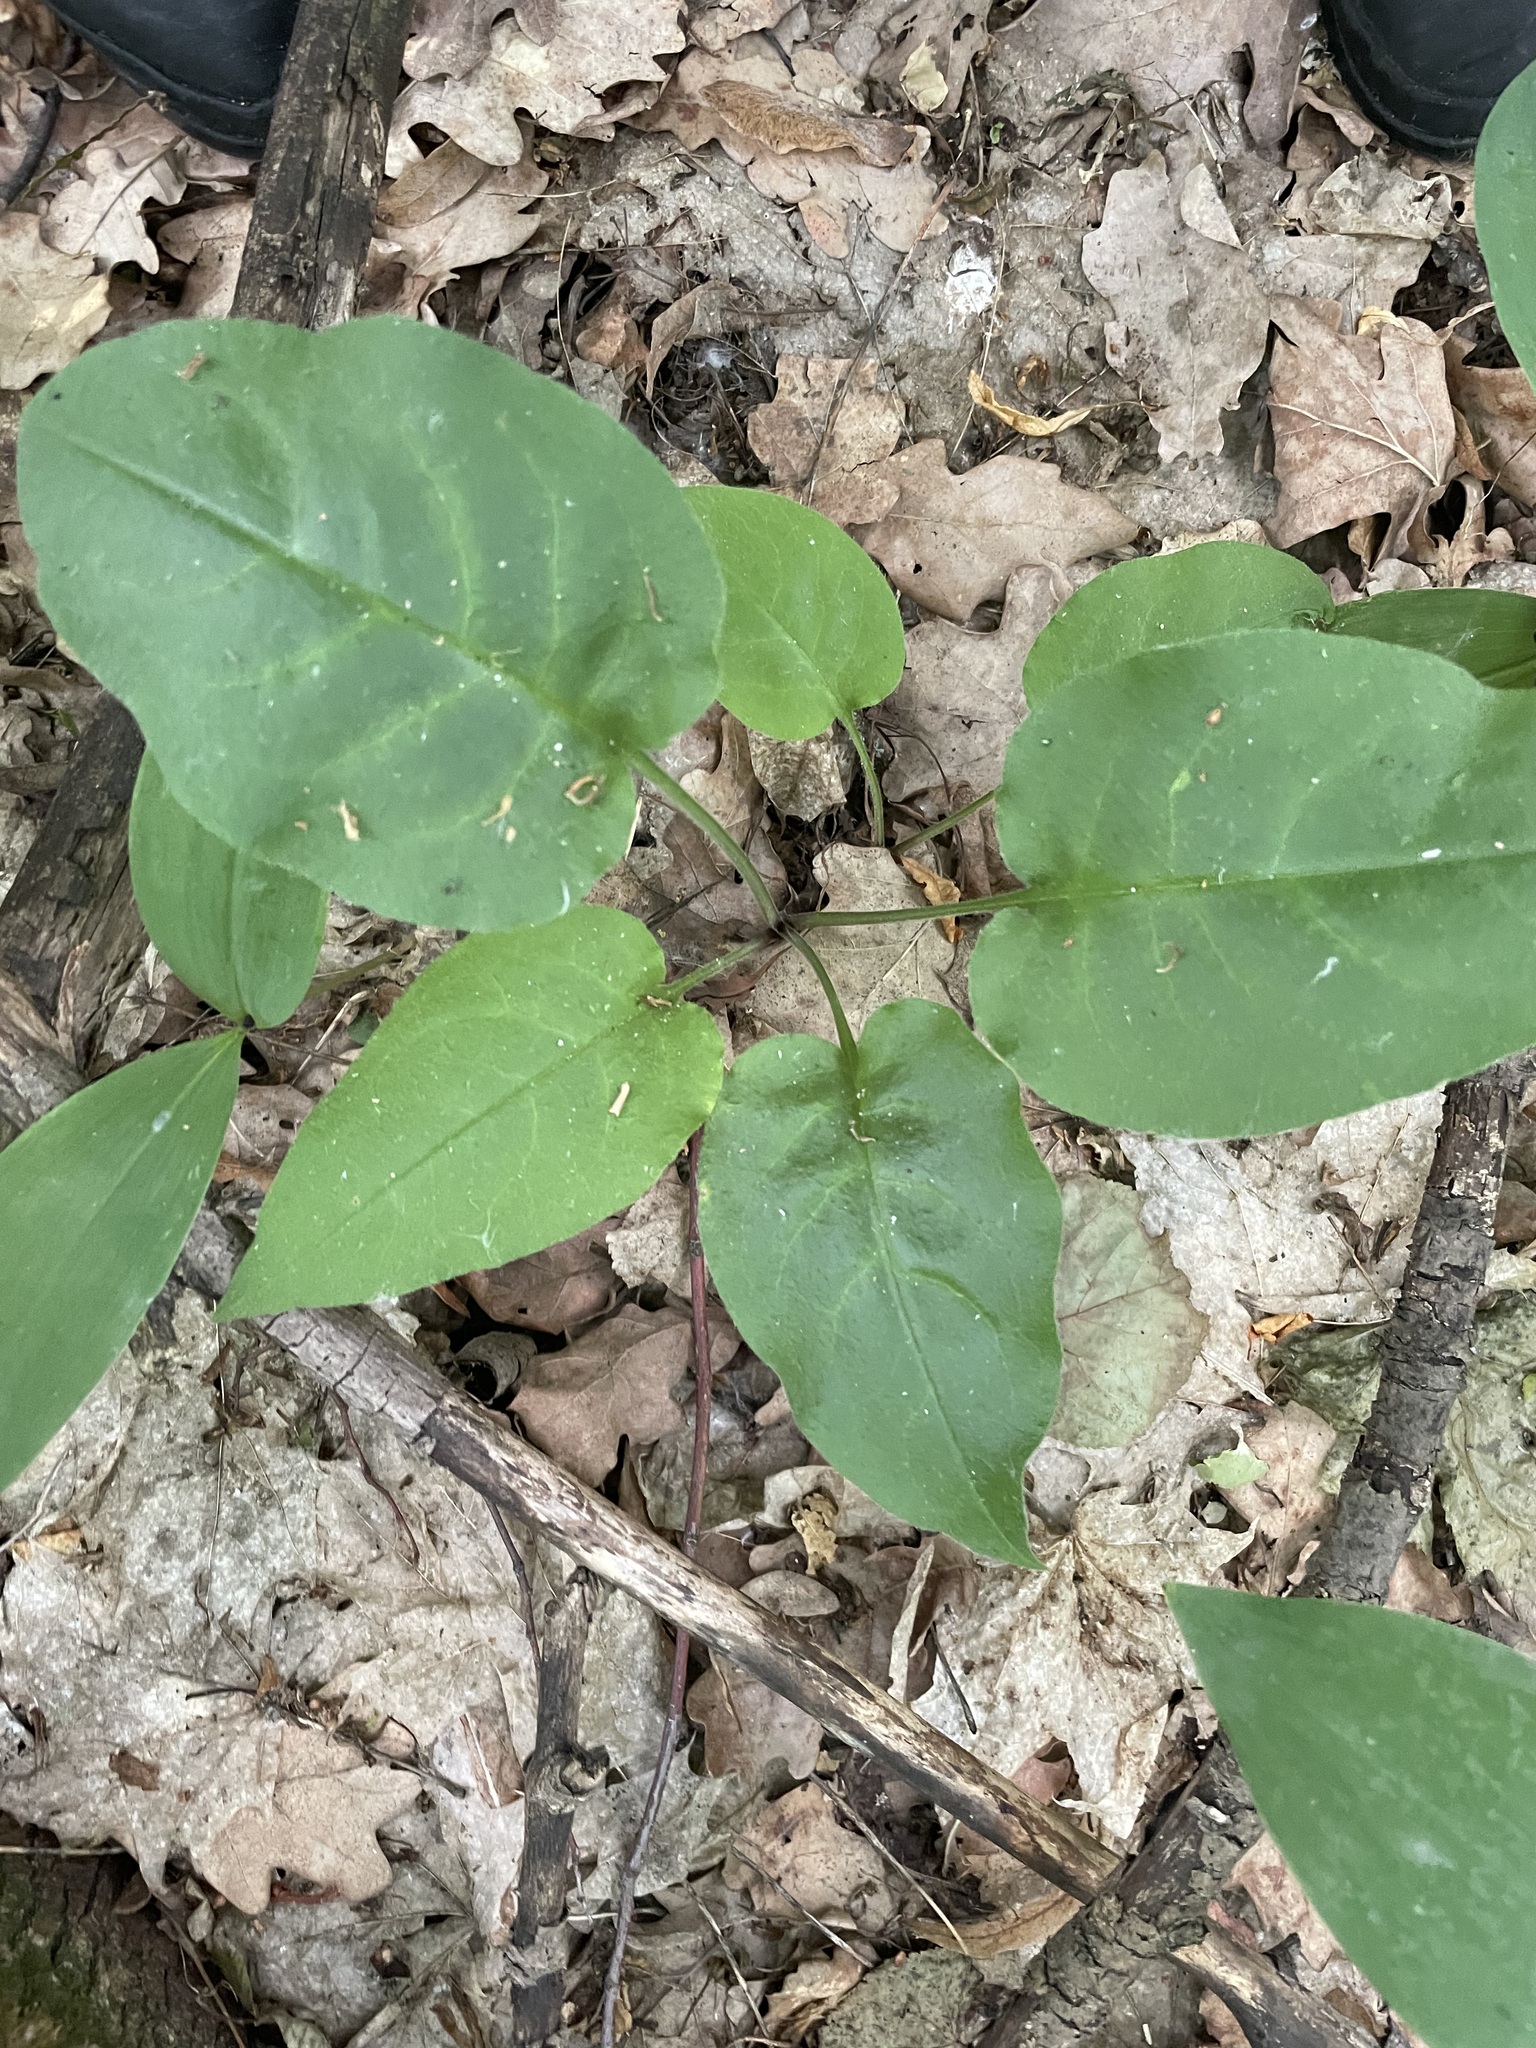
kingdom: Plantae
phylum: Tracheophyta
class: Magnoliopsida
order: Boraginales
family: Boraginaceae
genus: Pulmonaria
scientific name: Pulmonaria obscura
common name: Suffolk lungwort
